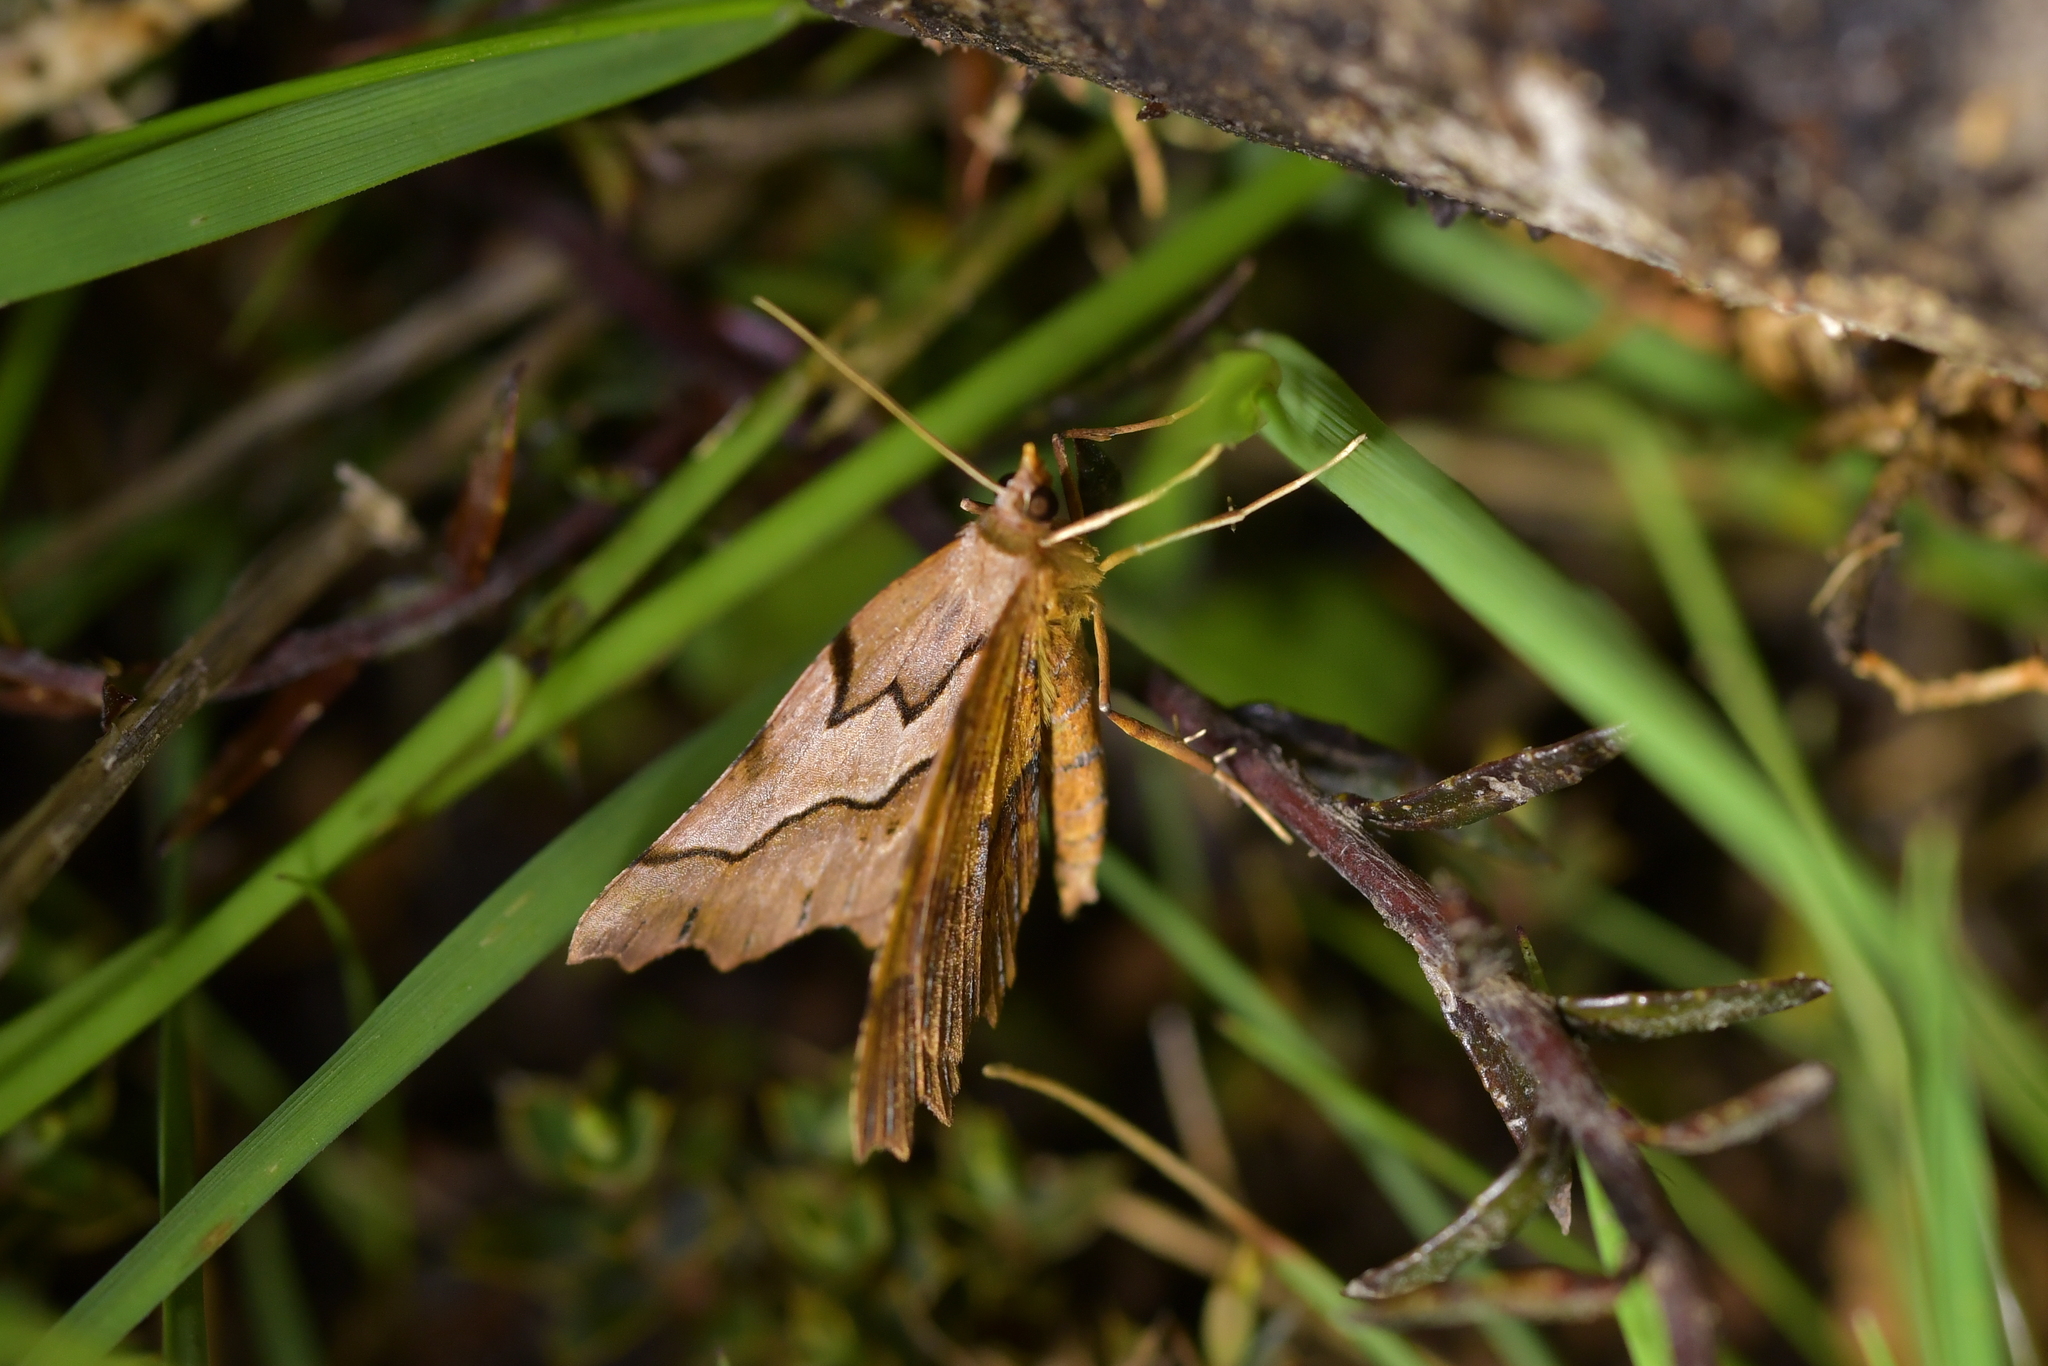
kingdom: Animalia
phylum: Arthropoda
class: Insecta
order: Lepidoptera
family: Geometridae
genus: Ischalis
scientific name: Ischalis fortinata
